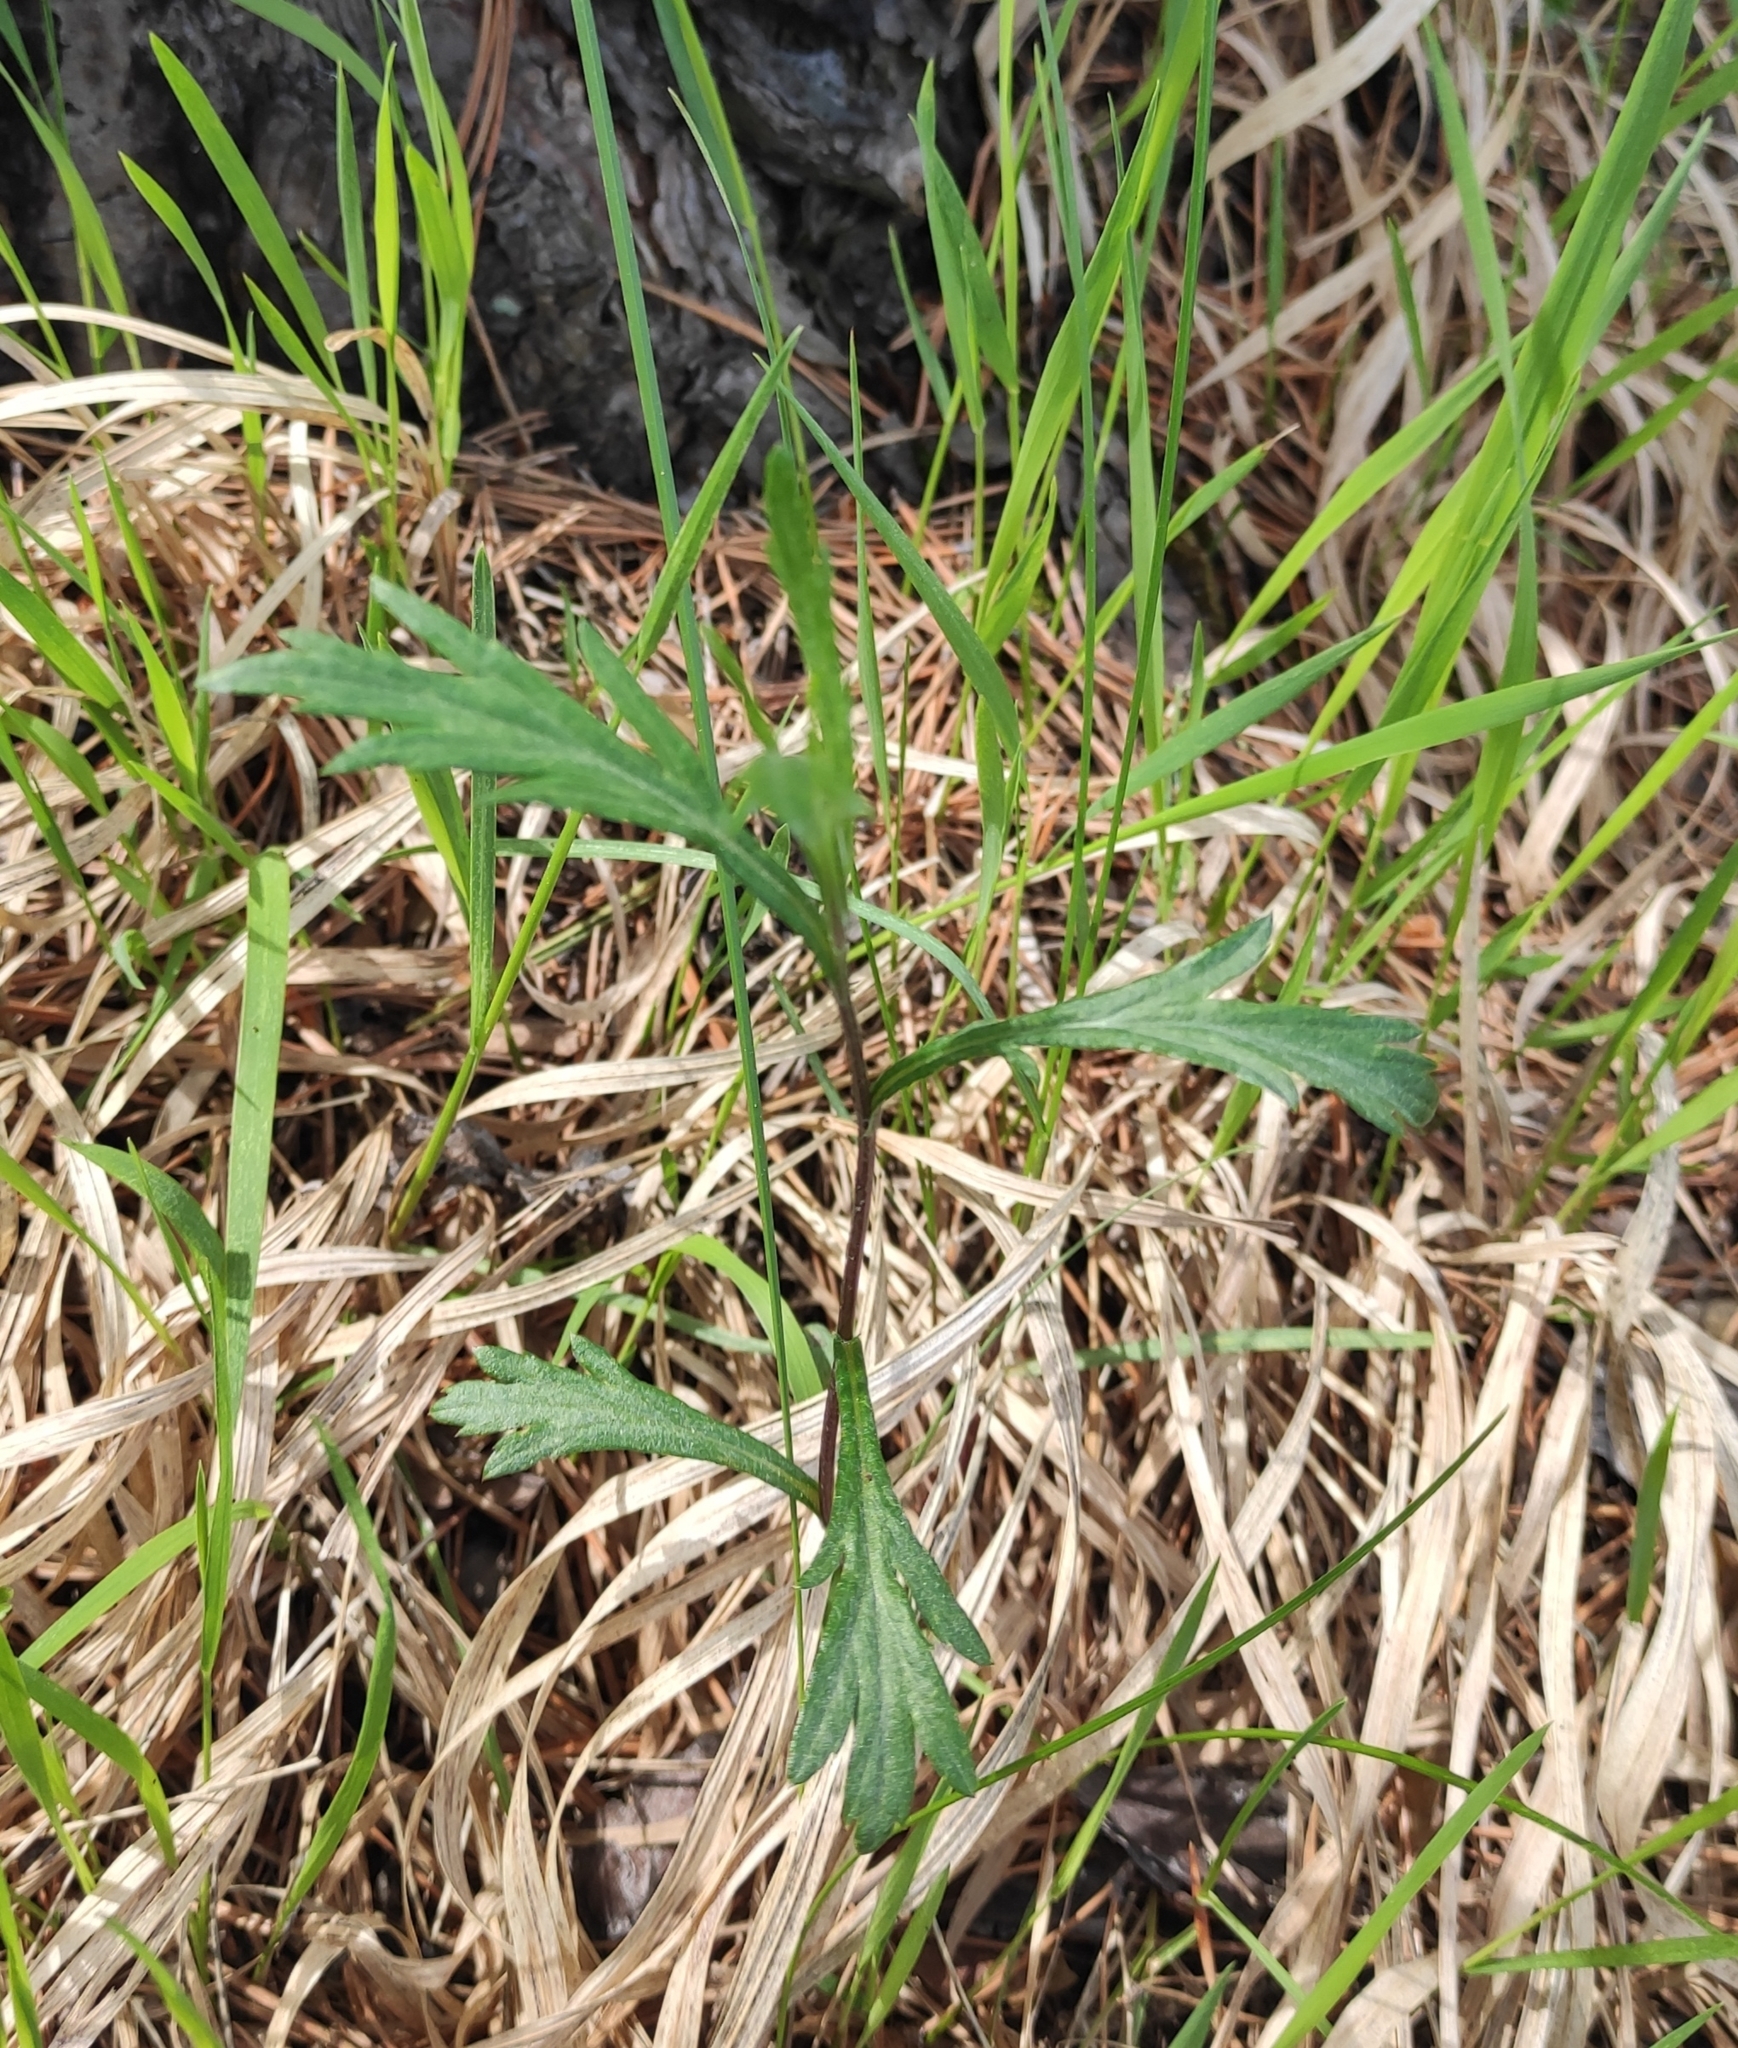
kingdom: Plantae
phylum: Tracheophyta
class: Magnoliopsida
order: Asterales
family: Asteraceae
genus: Artemisia
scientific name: Artemisia integrifolia
